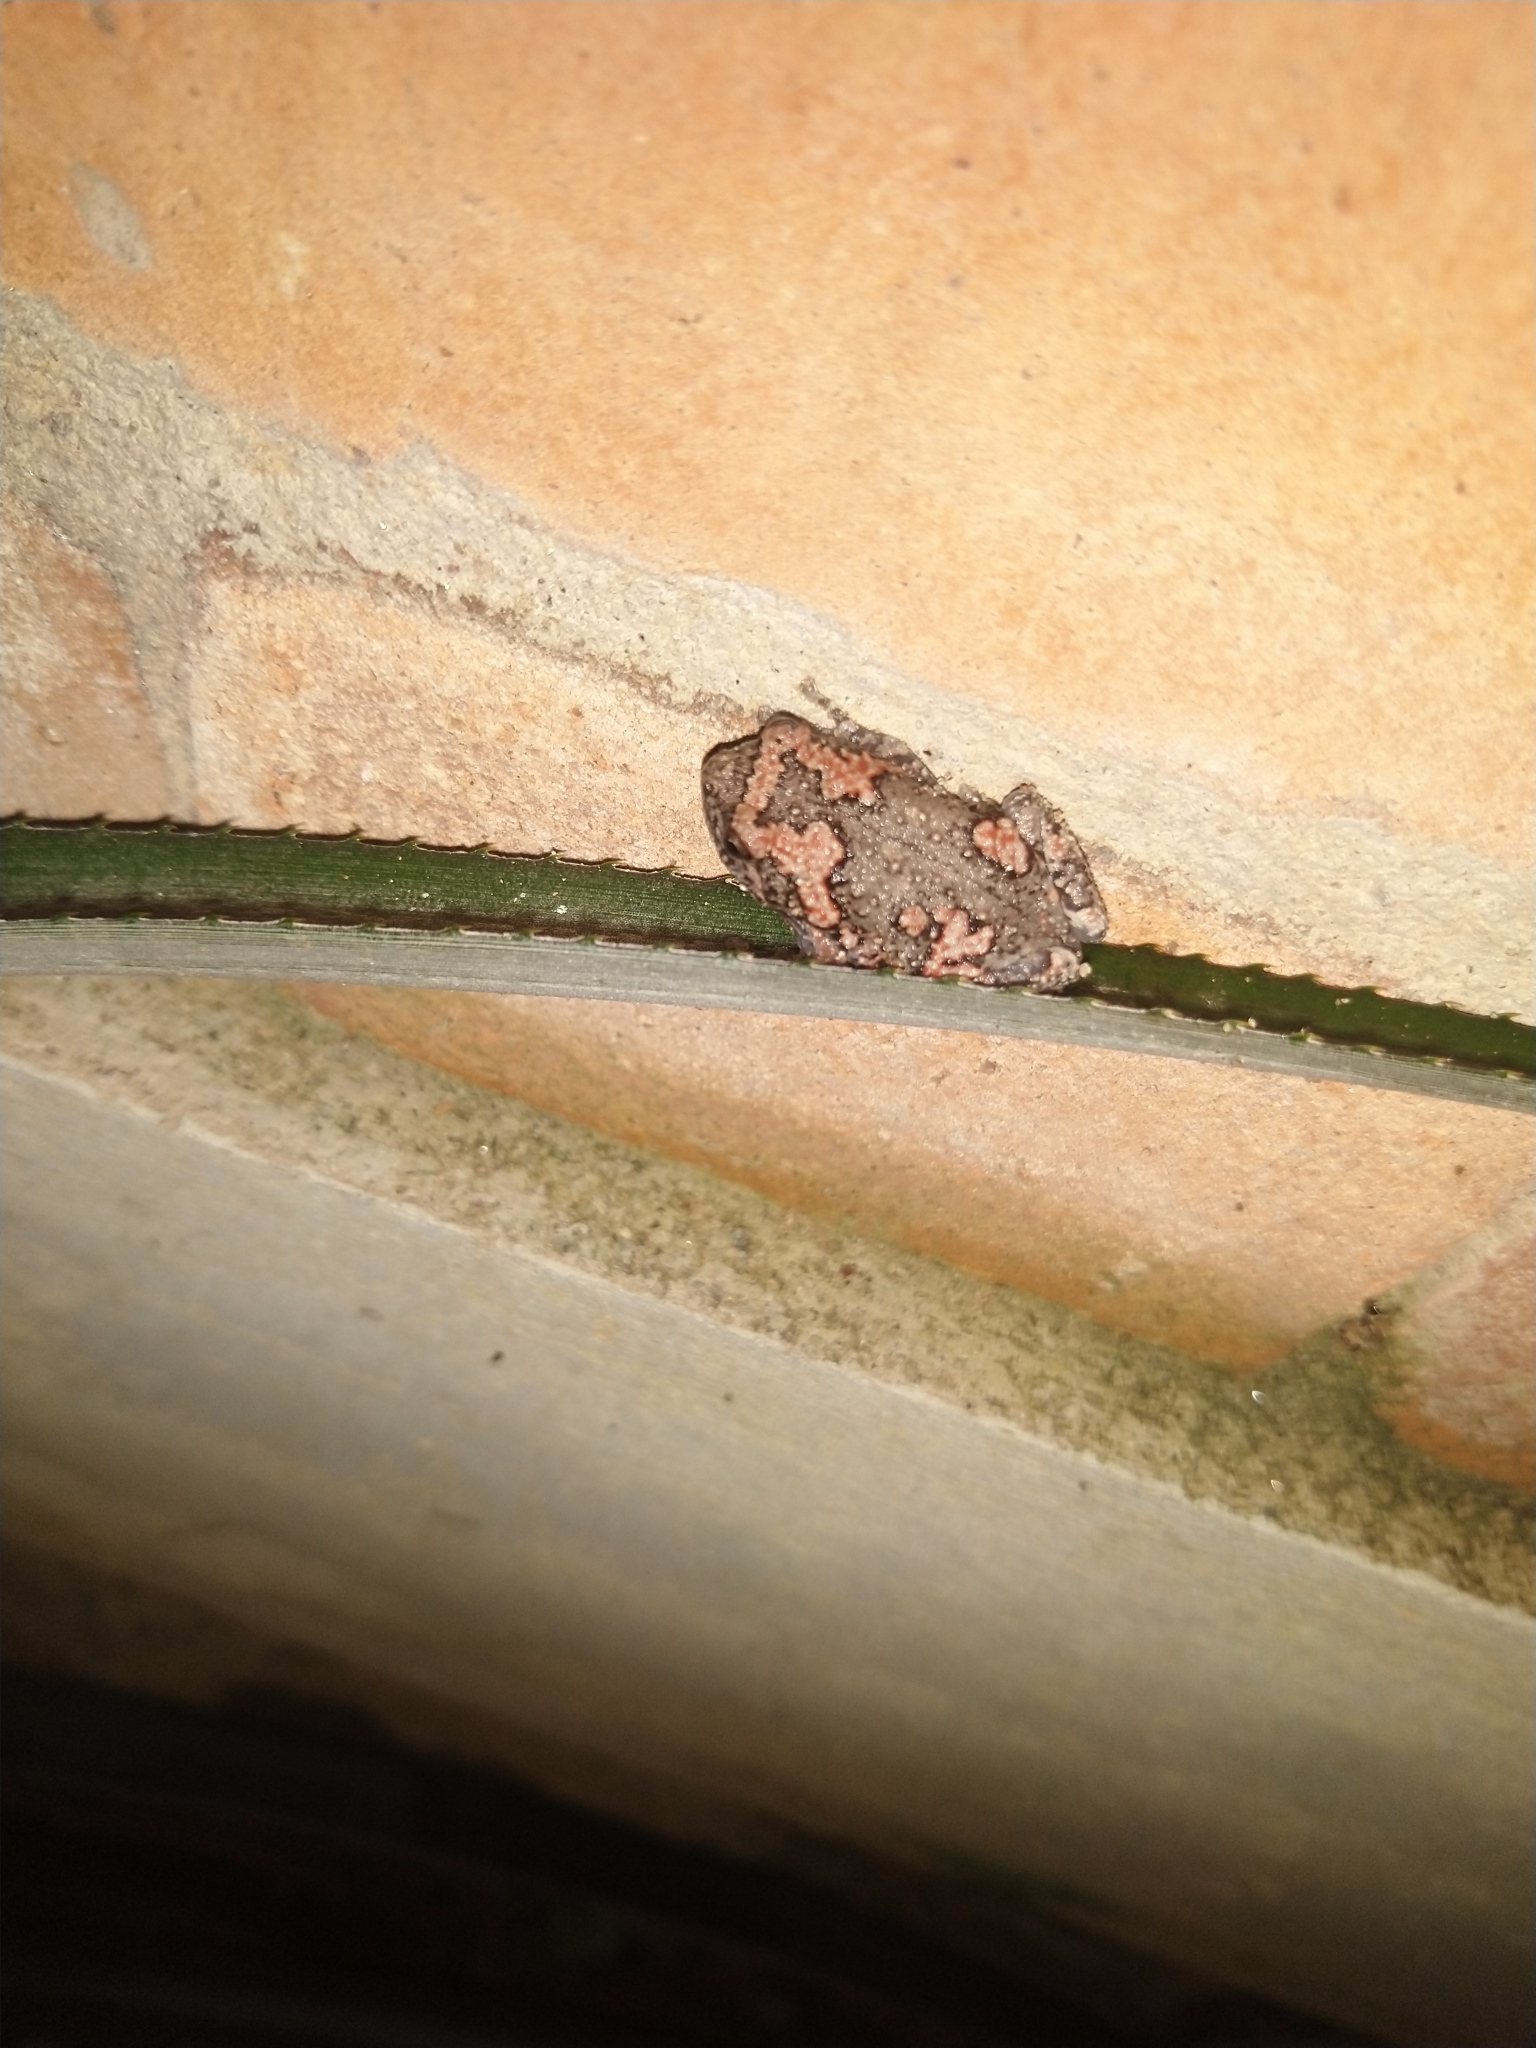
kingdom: Animalia
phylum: Chordata
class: Amphibia
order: Anura
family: Microhylidae
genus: Uperodon
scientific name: Uperodon taprobanicus
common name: Ceylon kaloula
